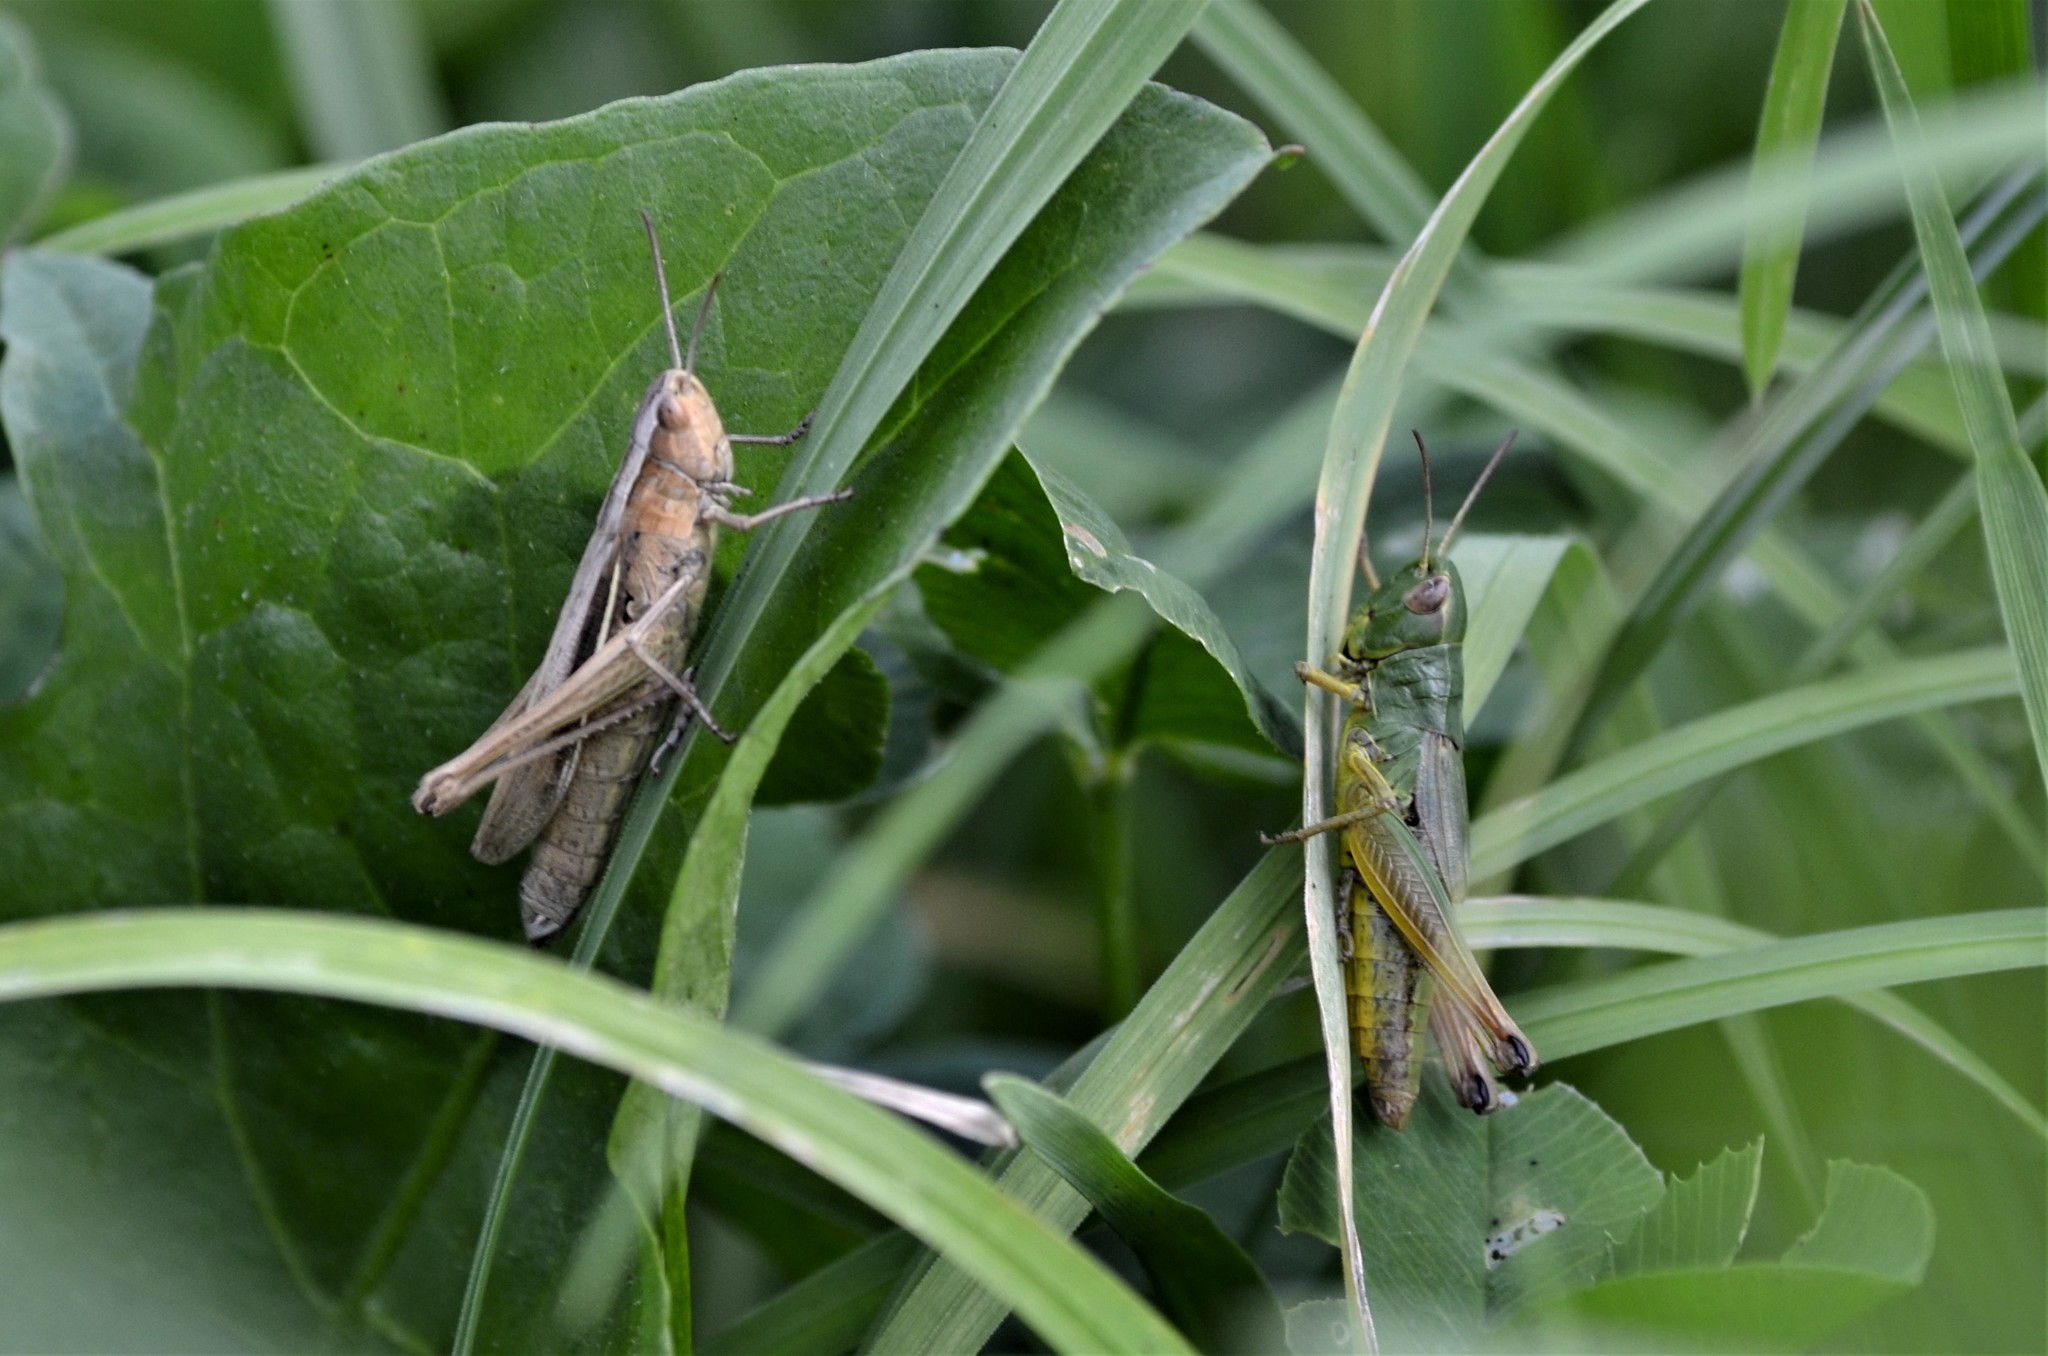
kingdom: Animalia
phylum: Arthropoda
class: Insecta
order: Orthoptera
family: Acrididae
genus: Chorthippus
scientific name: Chorthippus albomarginatus
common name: Lesser marsh grasshopper
